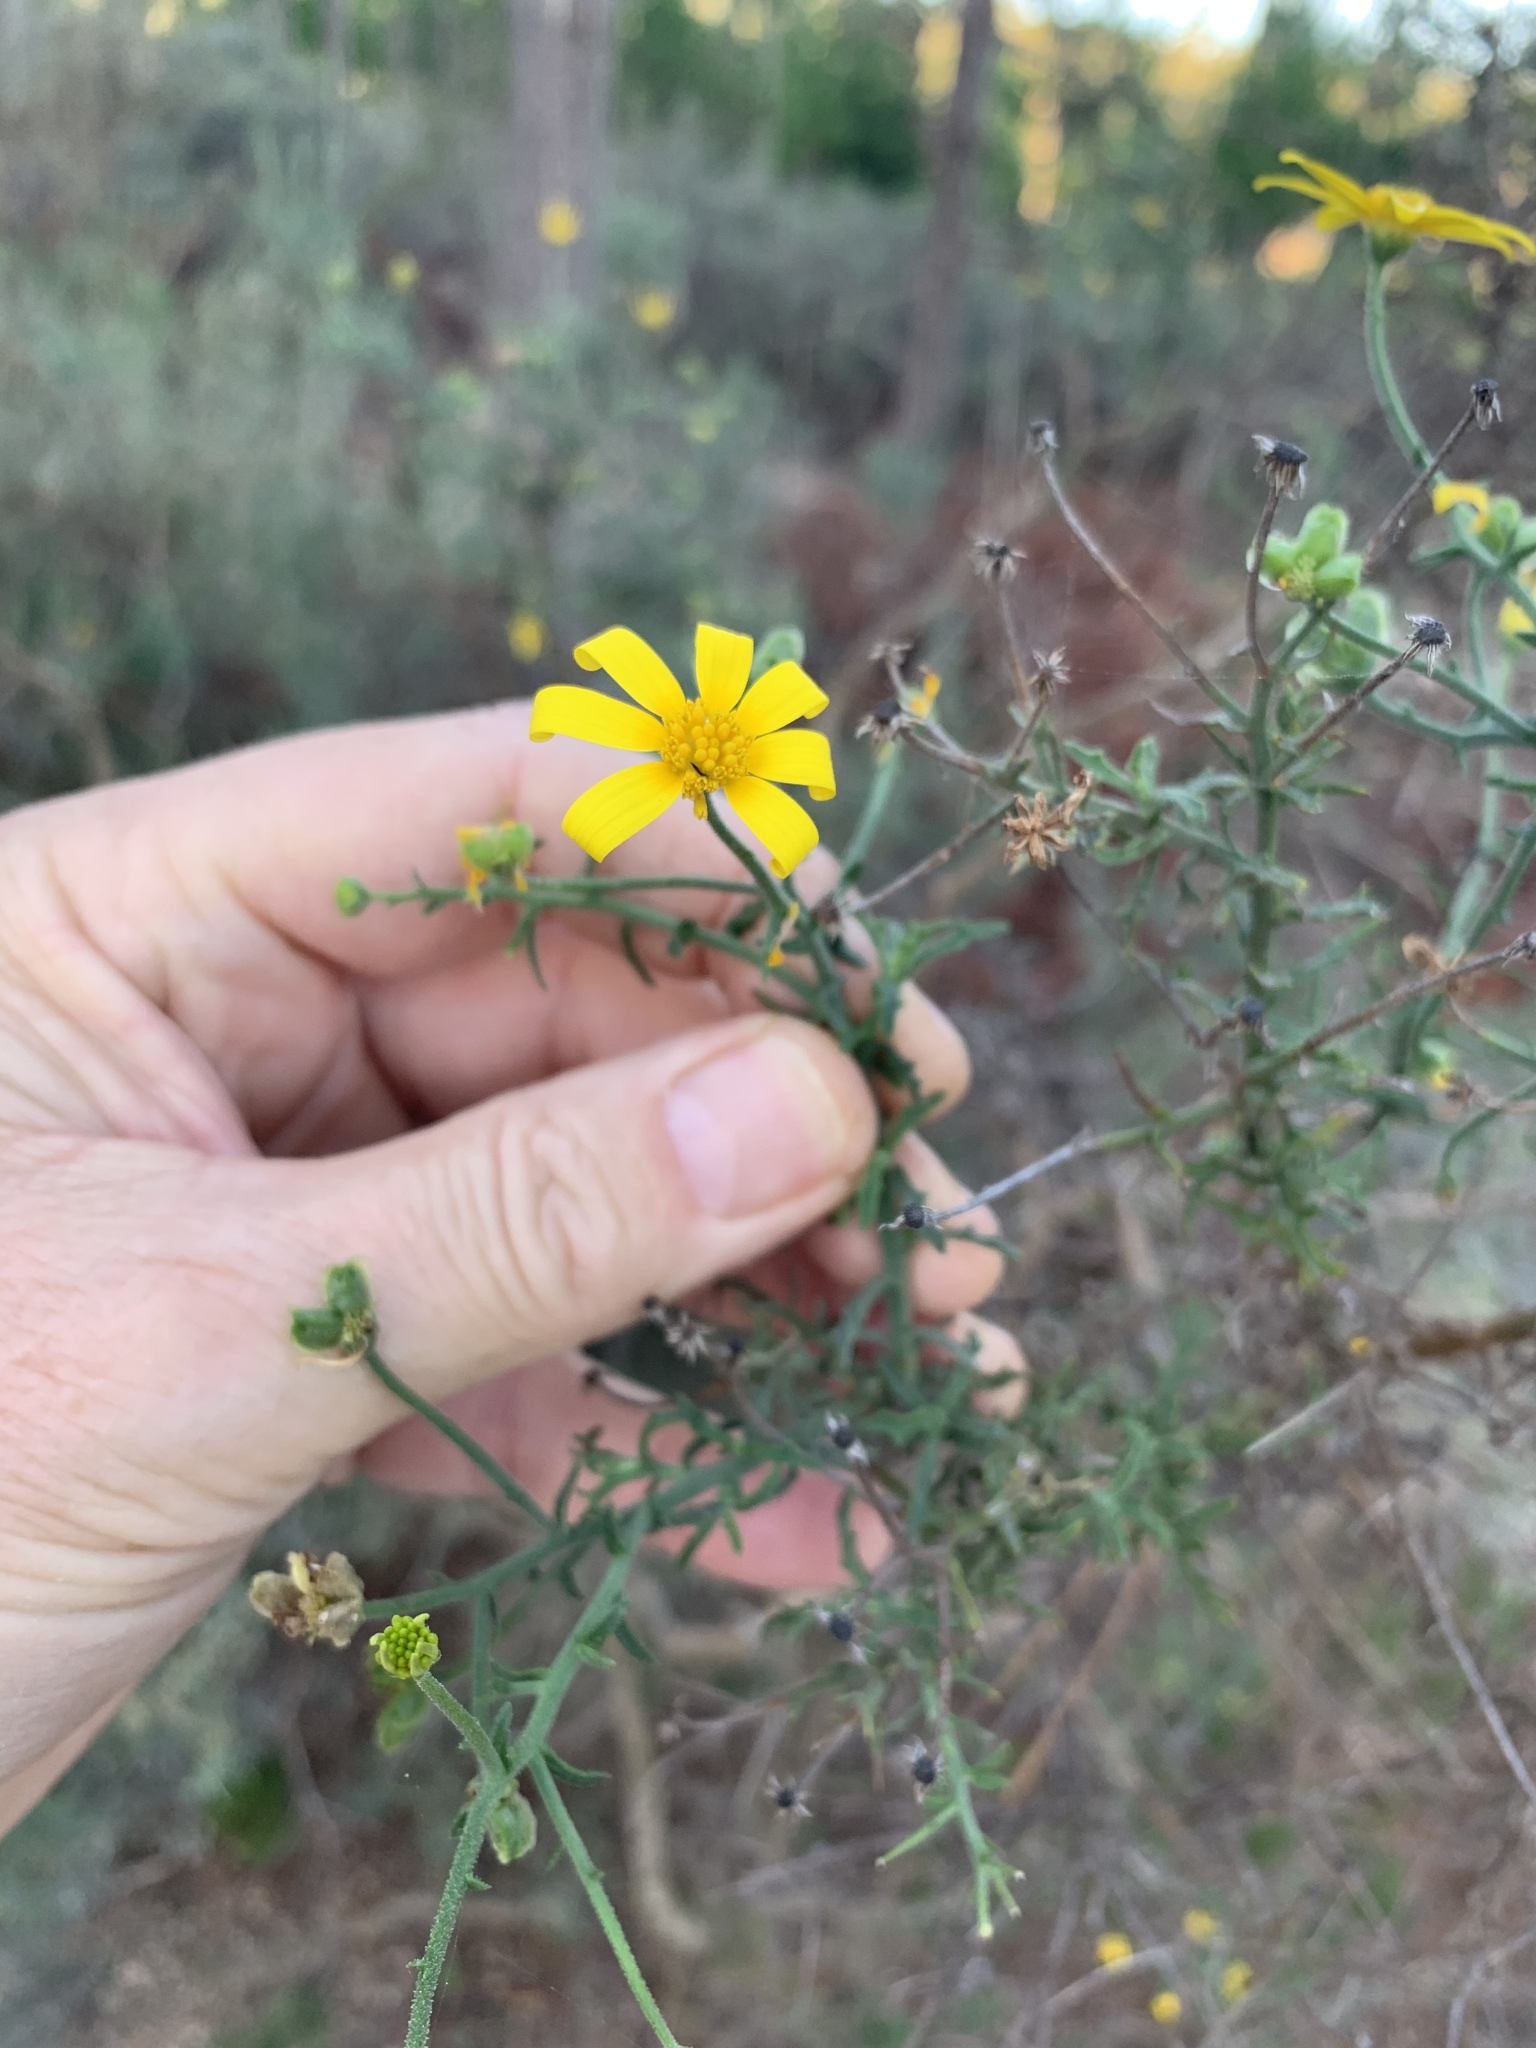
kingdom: Plantae
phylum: Tracheophyta
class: Magnoliopsida
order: Asterales
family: Asteraceae
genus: Osteospermum
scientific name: Osteospermum spinosum
